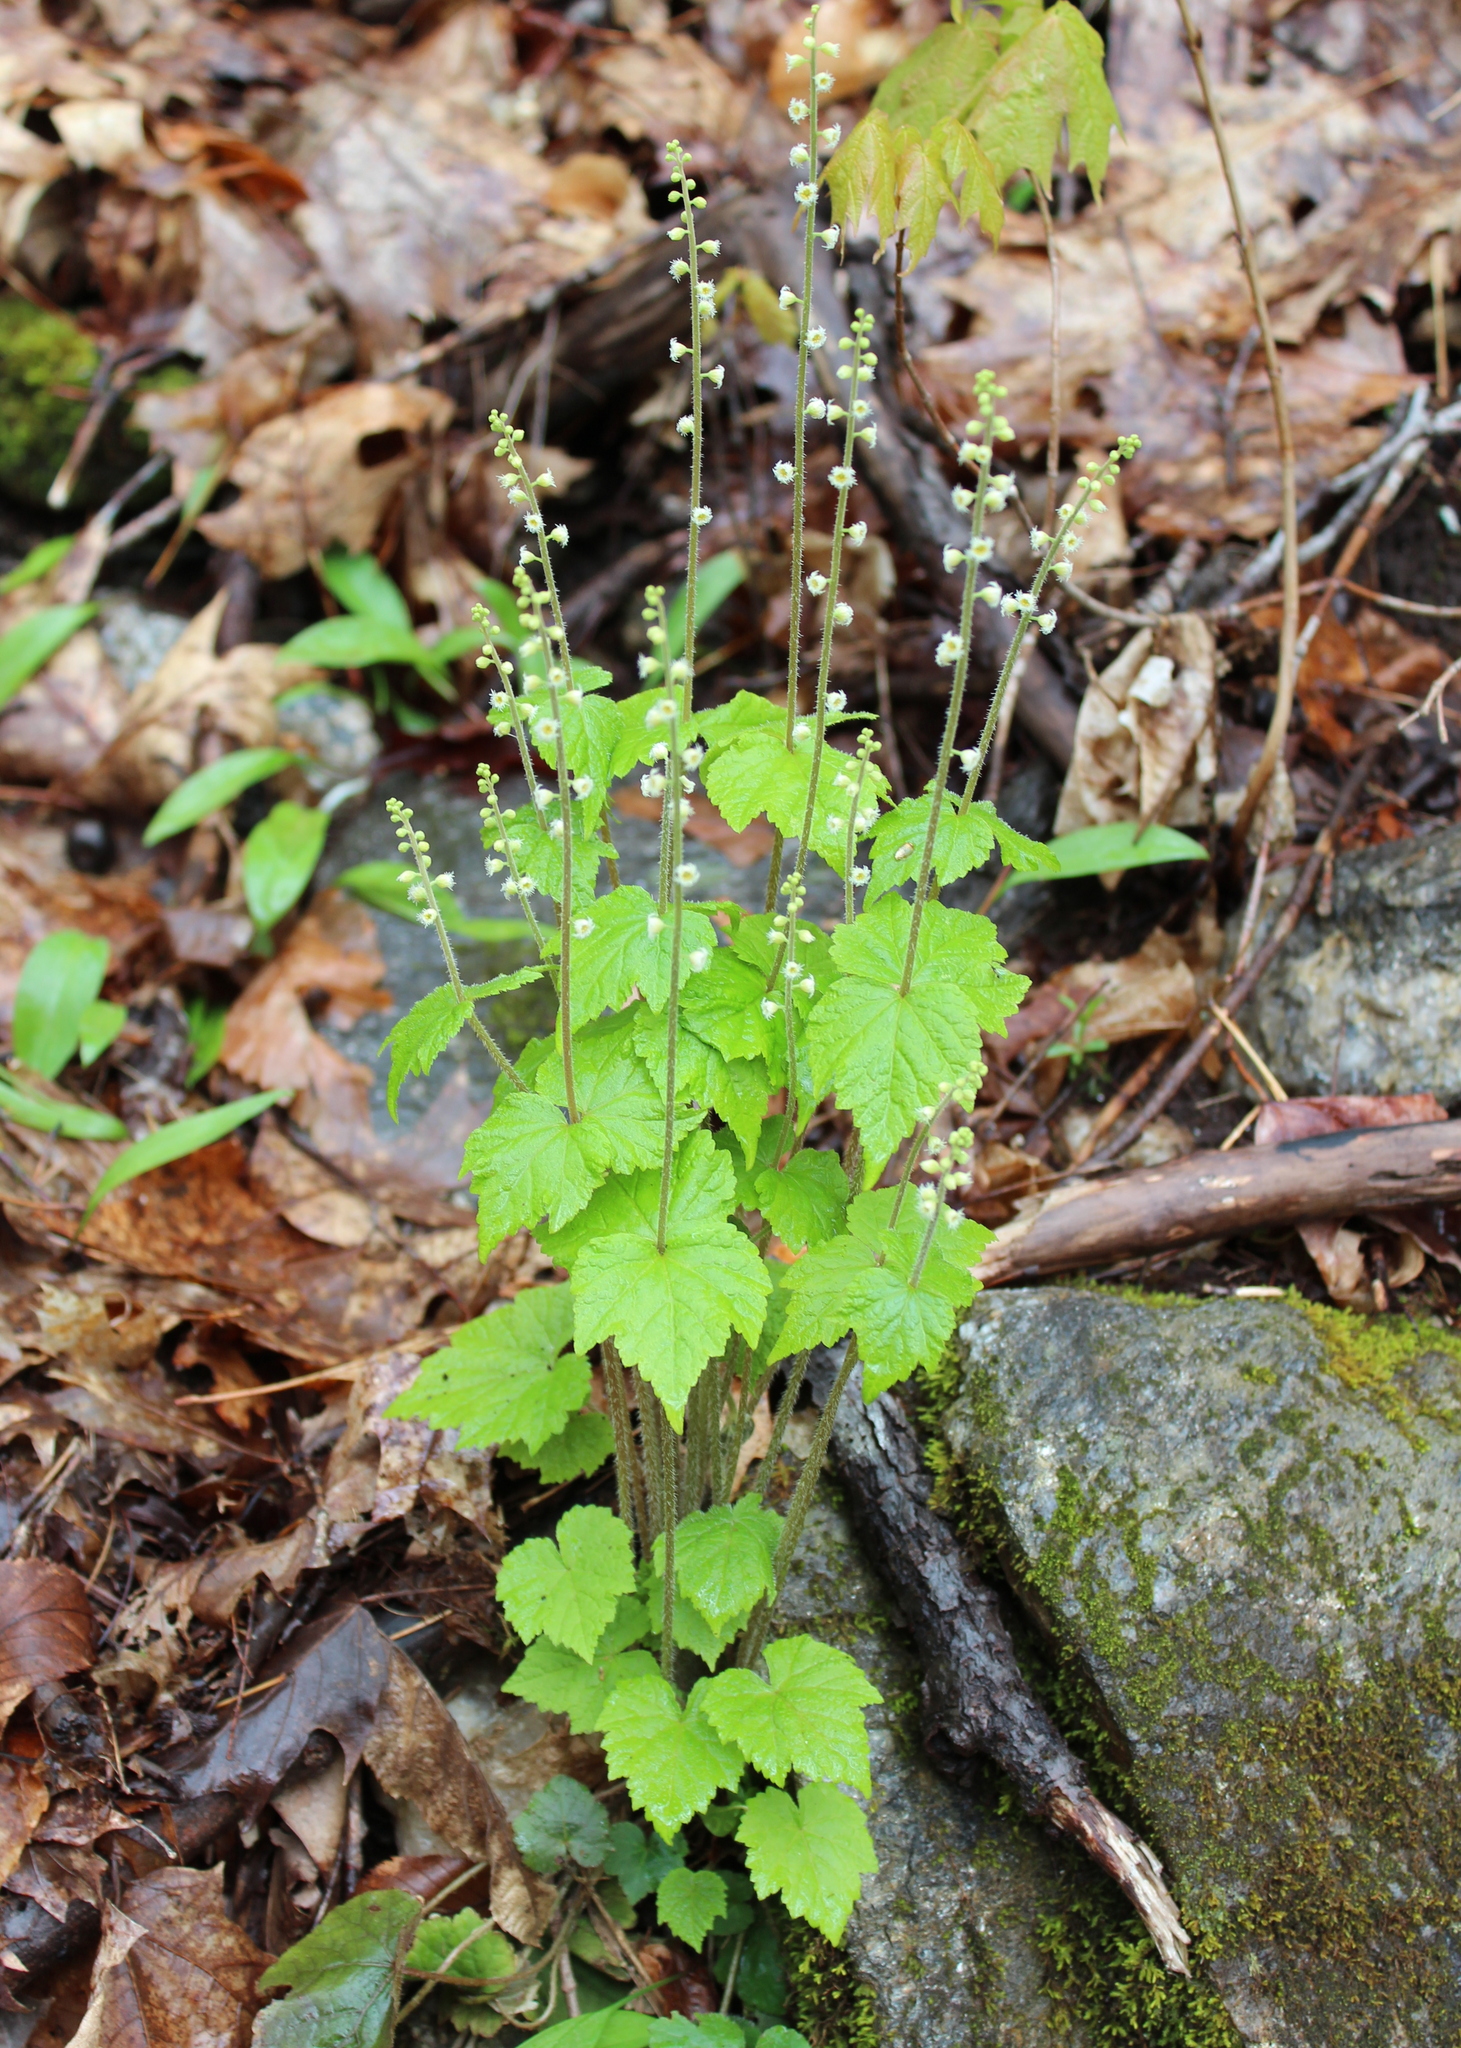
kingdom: Plantae
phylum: Tracheophyta
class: Magnoliopsida
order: Saxifragales
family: Saxifragaceae
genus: Mitella
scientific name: Mitella diphylla
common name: Coolwort
